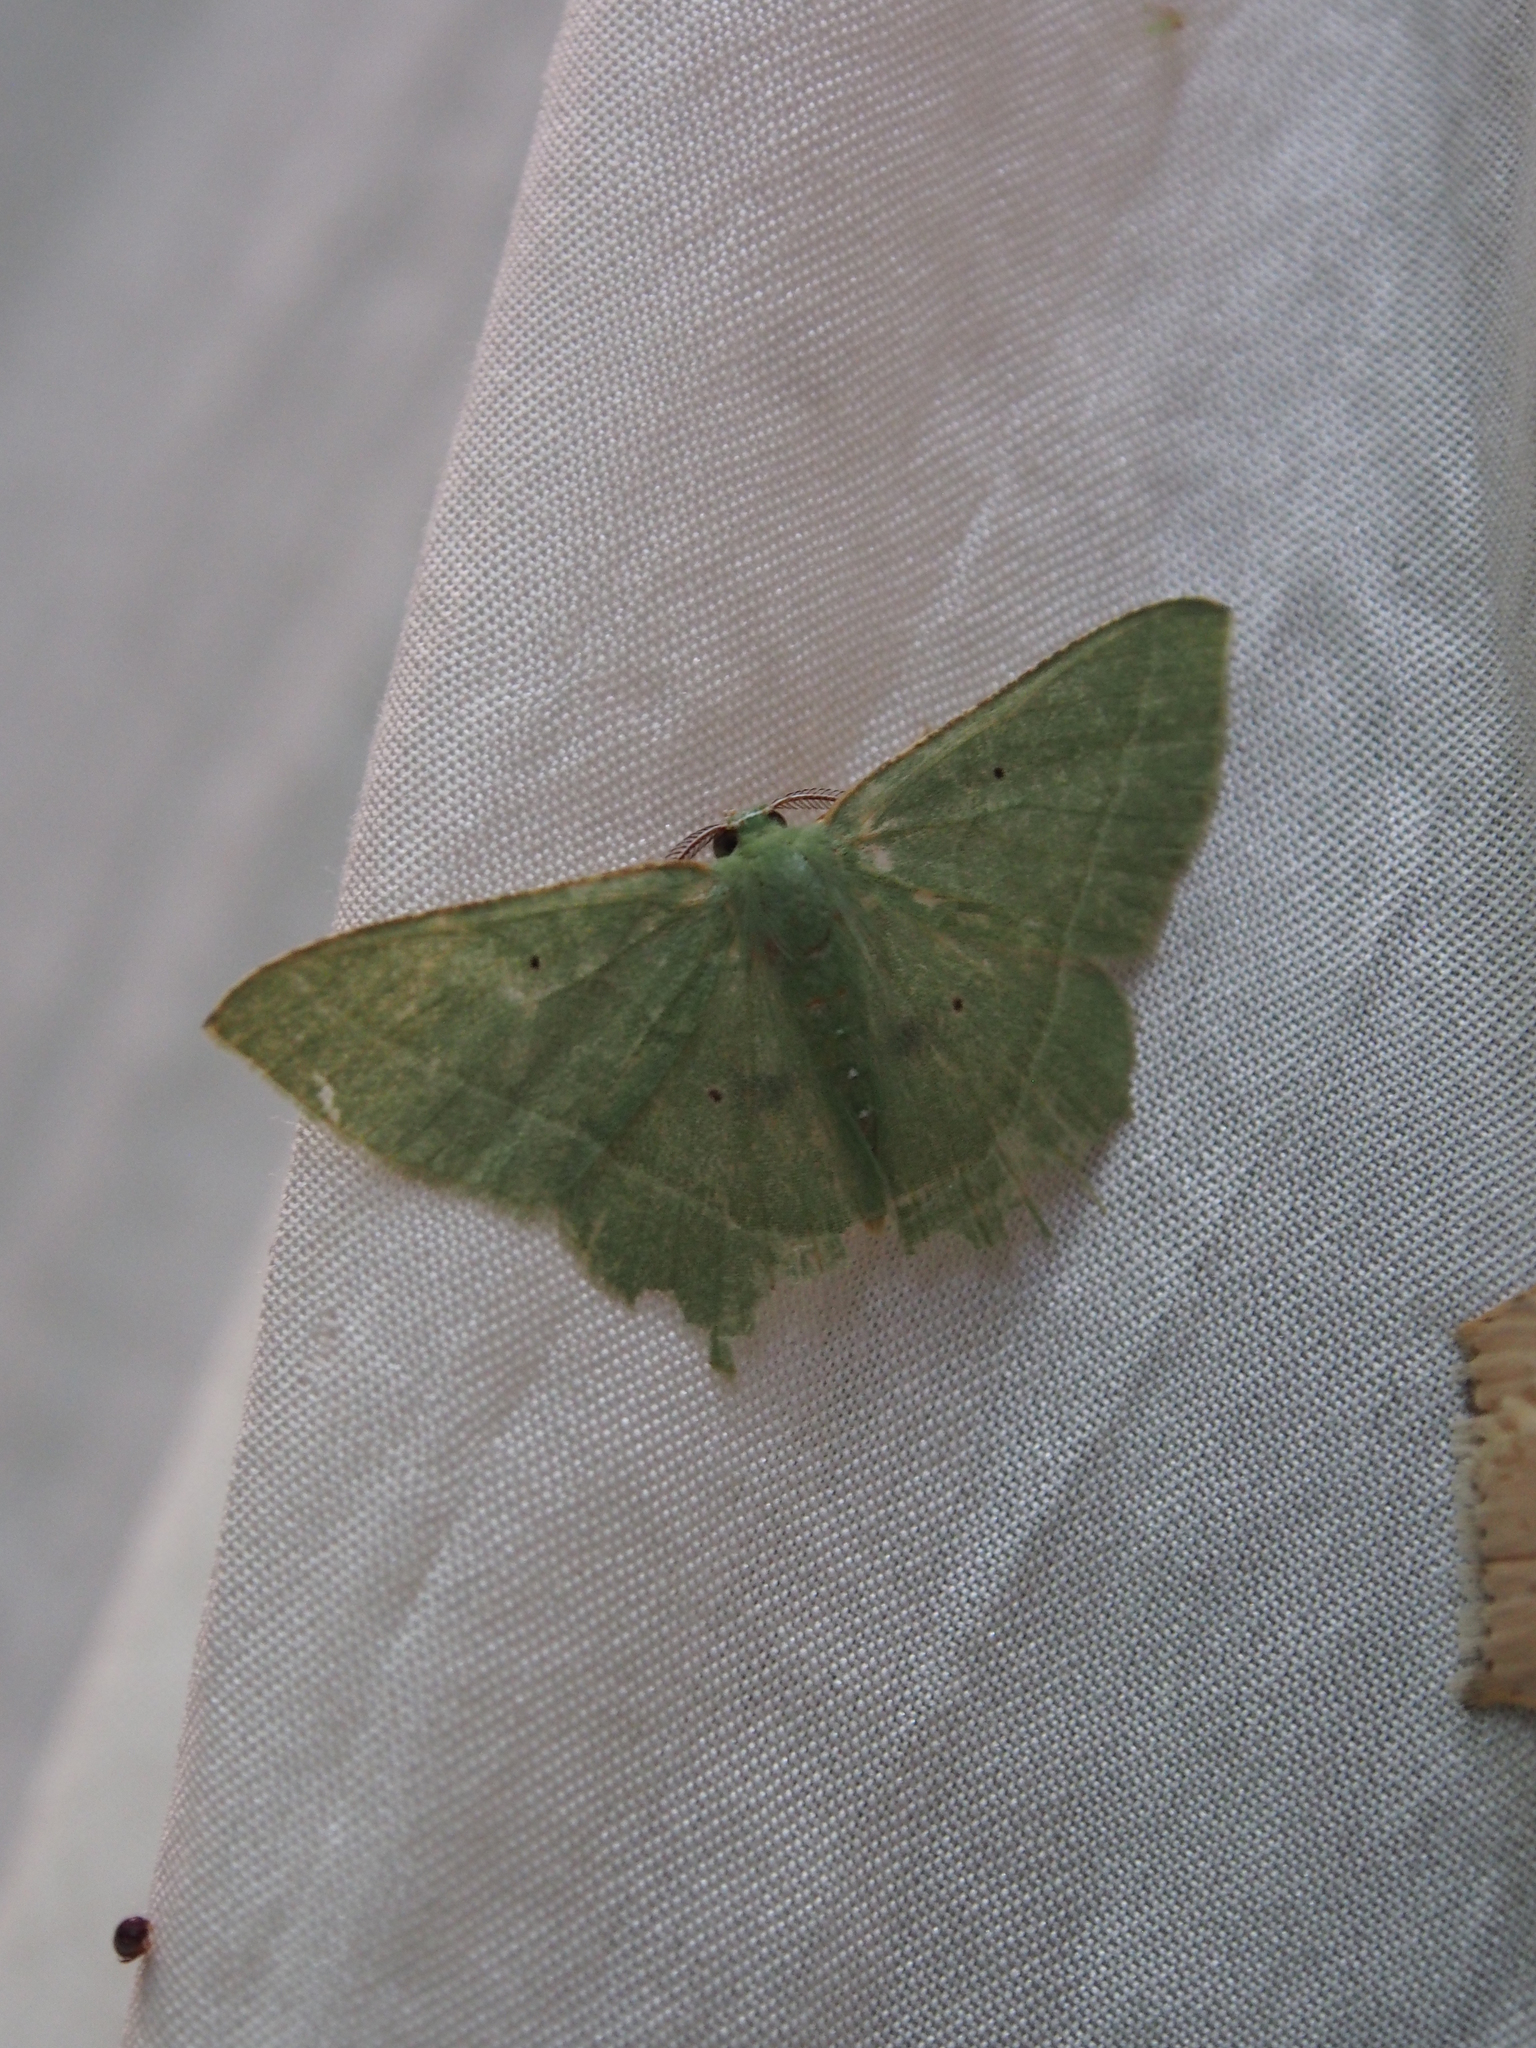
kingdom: Animalia
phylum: Arthropoda
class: Insecta
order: Lepidoptera
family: Geometridae
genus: Phrudocentra
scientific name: Phrudocentra pupillata
